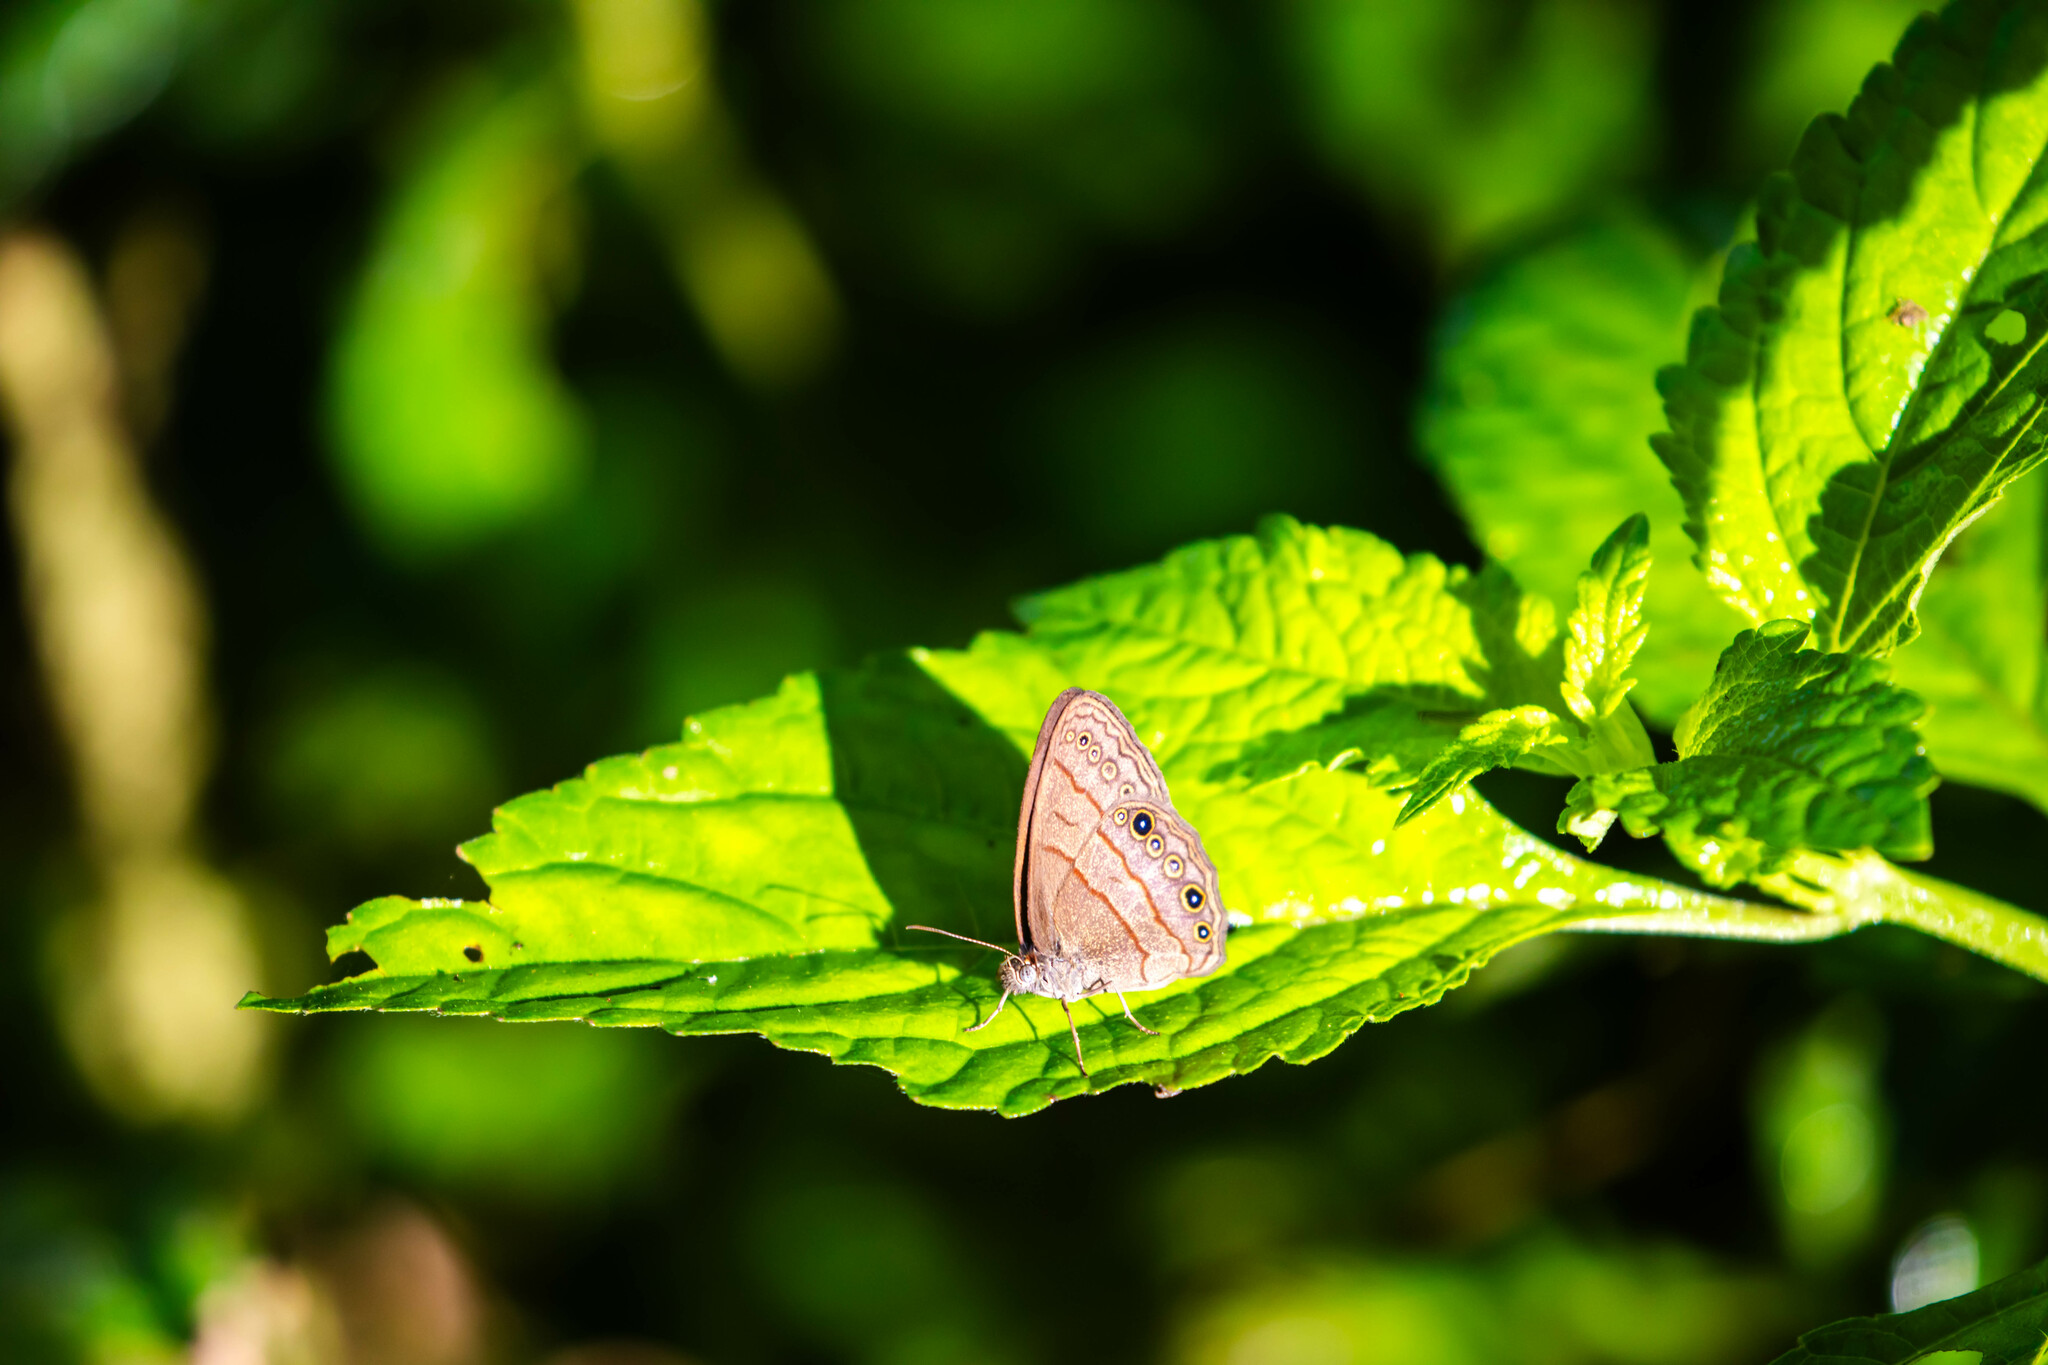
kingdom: Animalia
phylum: Arthropoda
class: Insecta
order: Lepidoptera
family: Nymphalidae
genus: Hermeuptychia
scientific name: Hermeuptychia canthe
